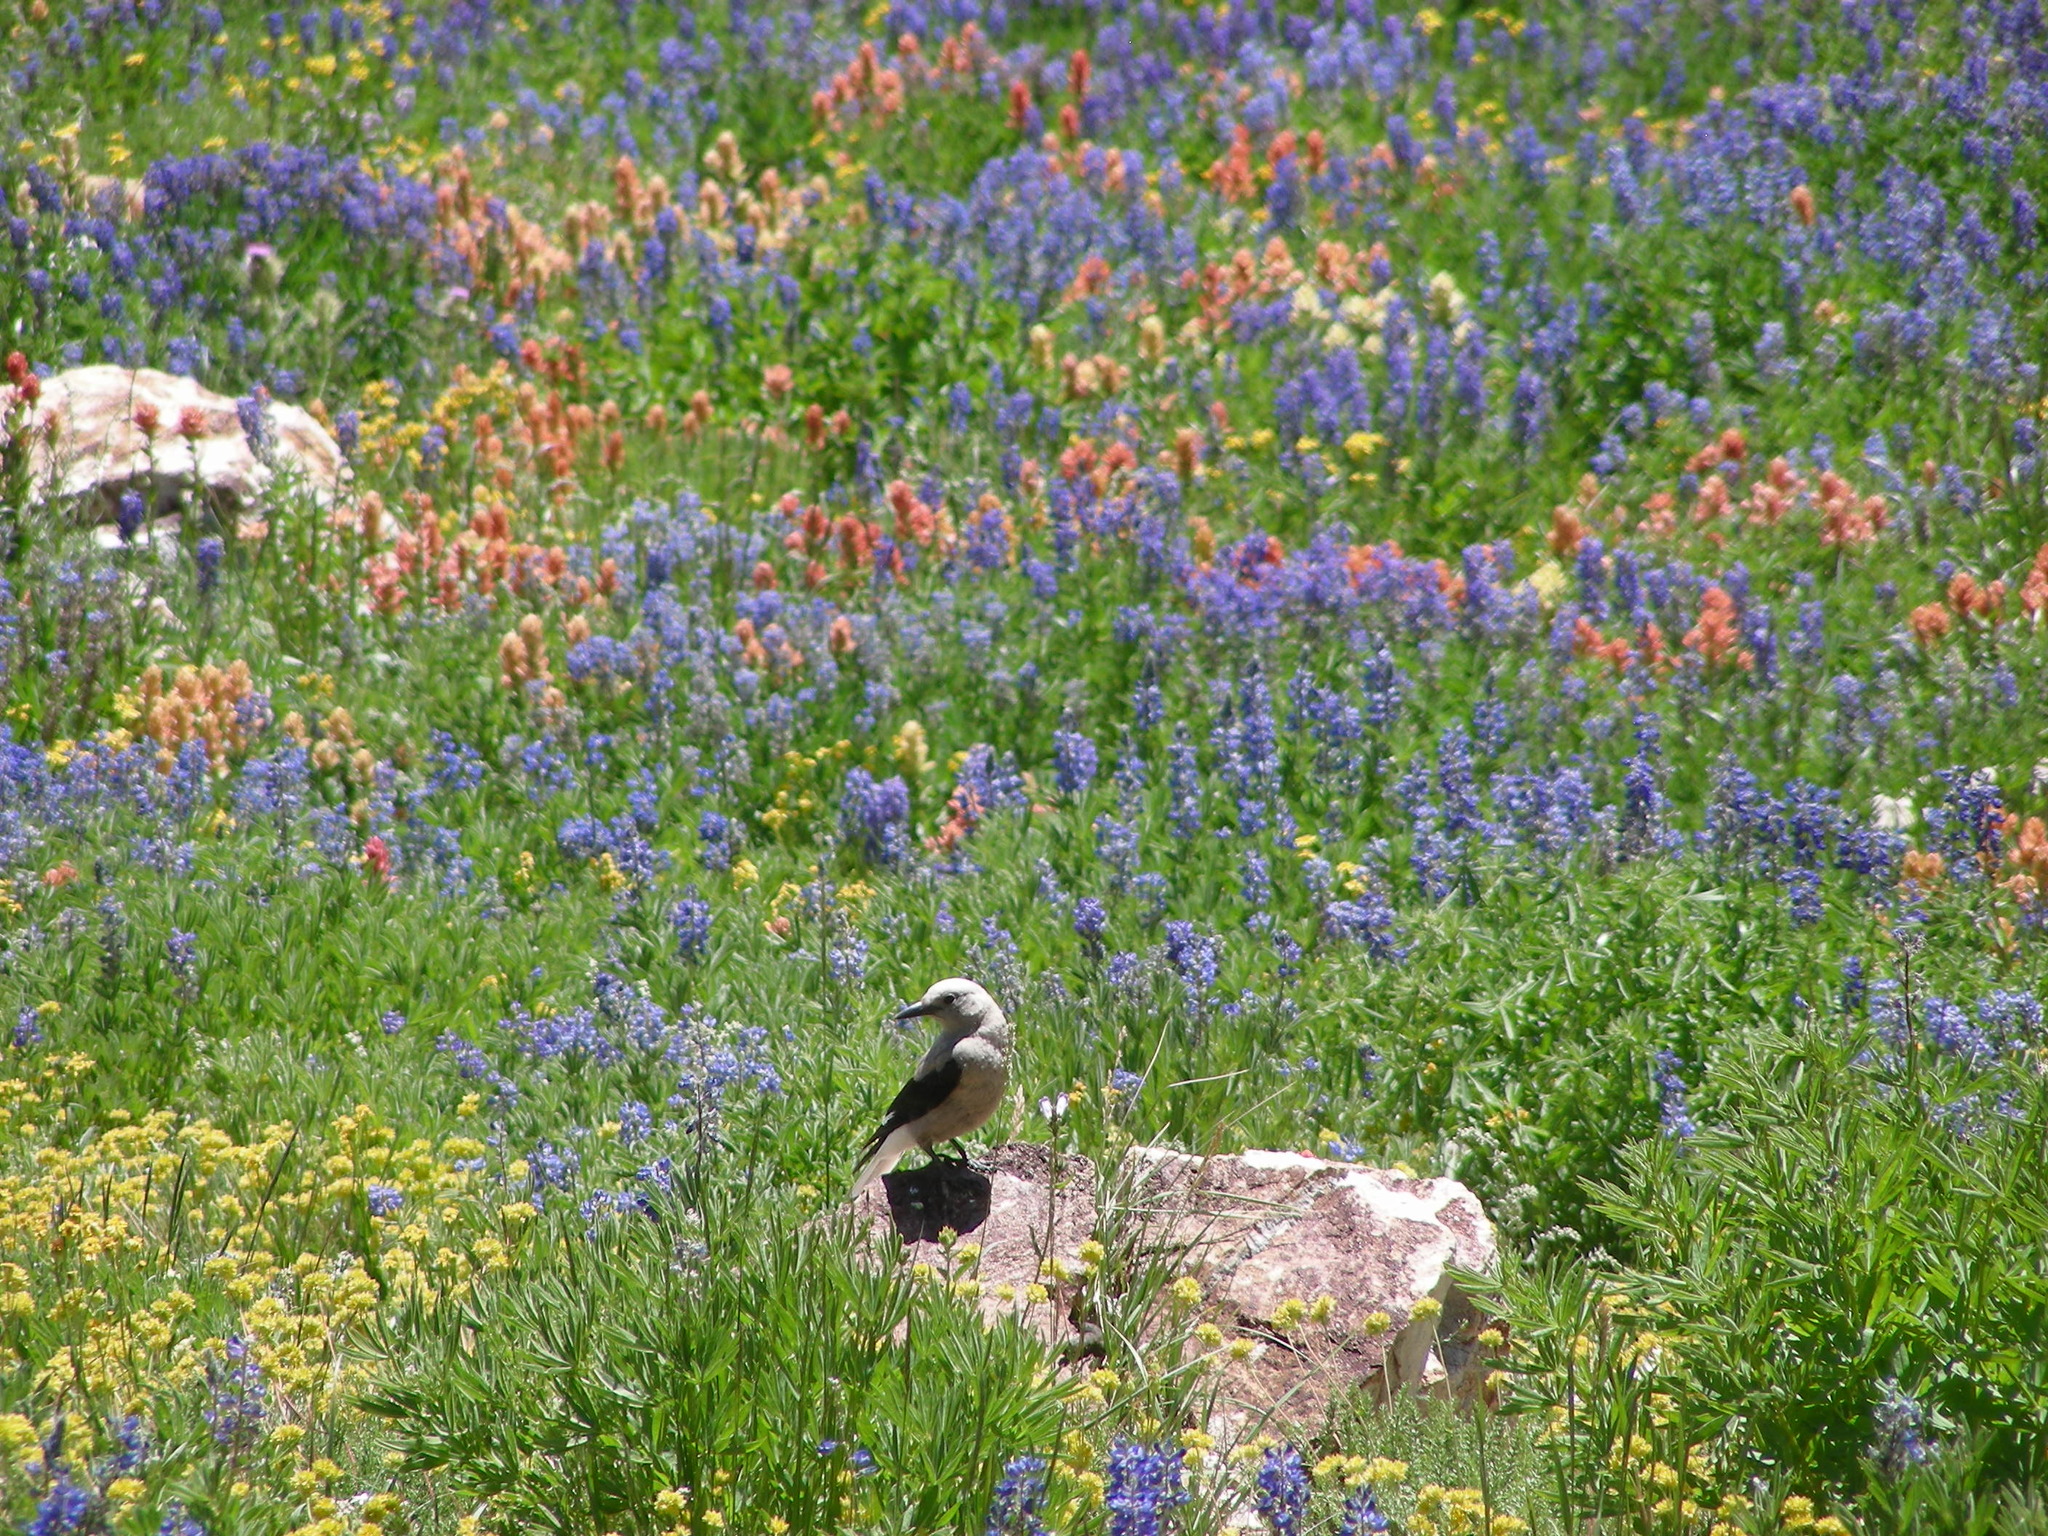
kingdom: Animalia
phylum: Chordata
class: Aves
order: Passeriformes
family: Corvidae
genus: Nucifraga
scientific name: Nucifraga columbiana
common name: Clark's nutcracker
